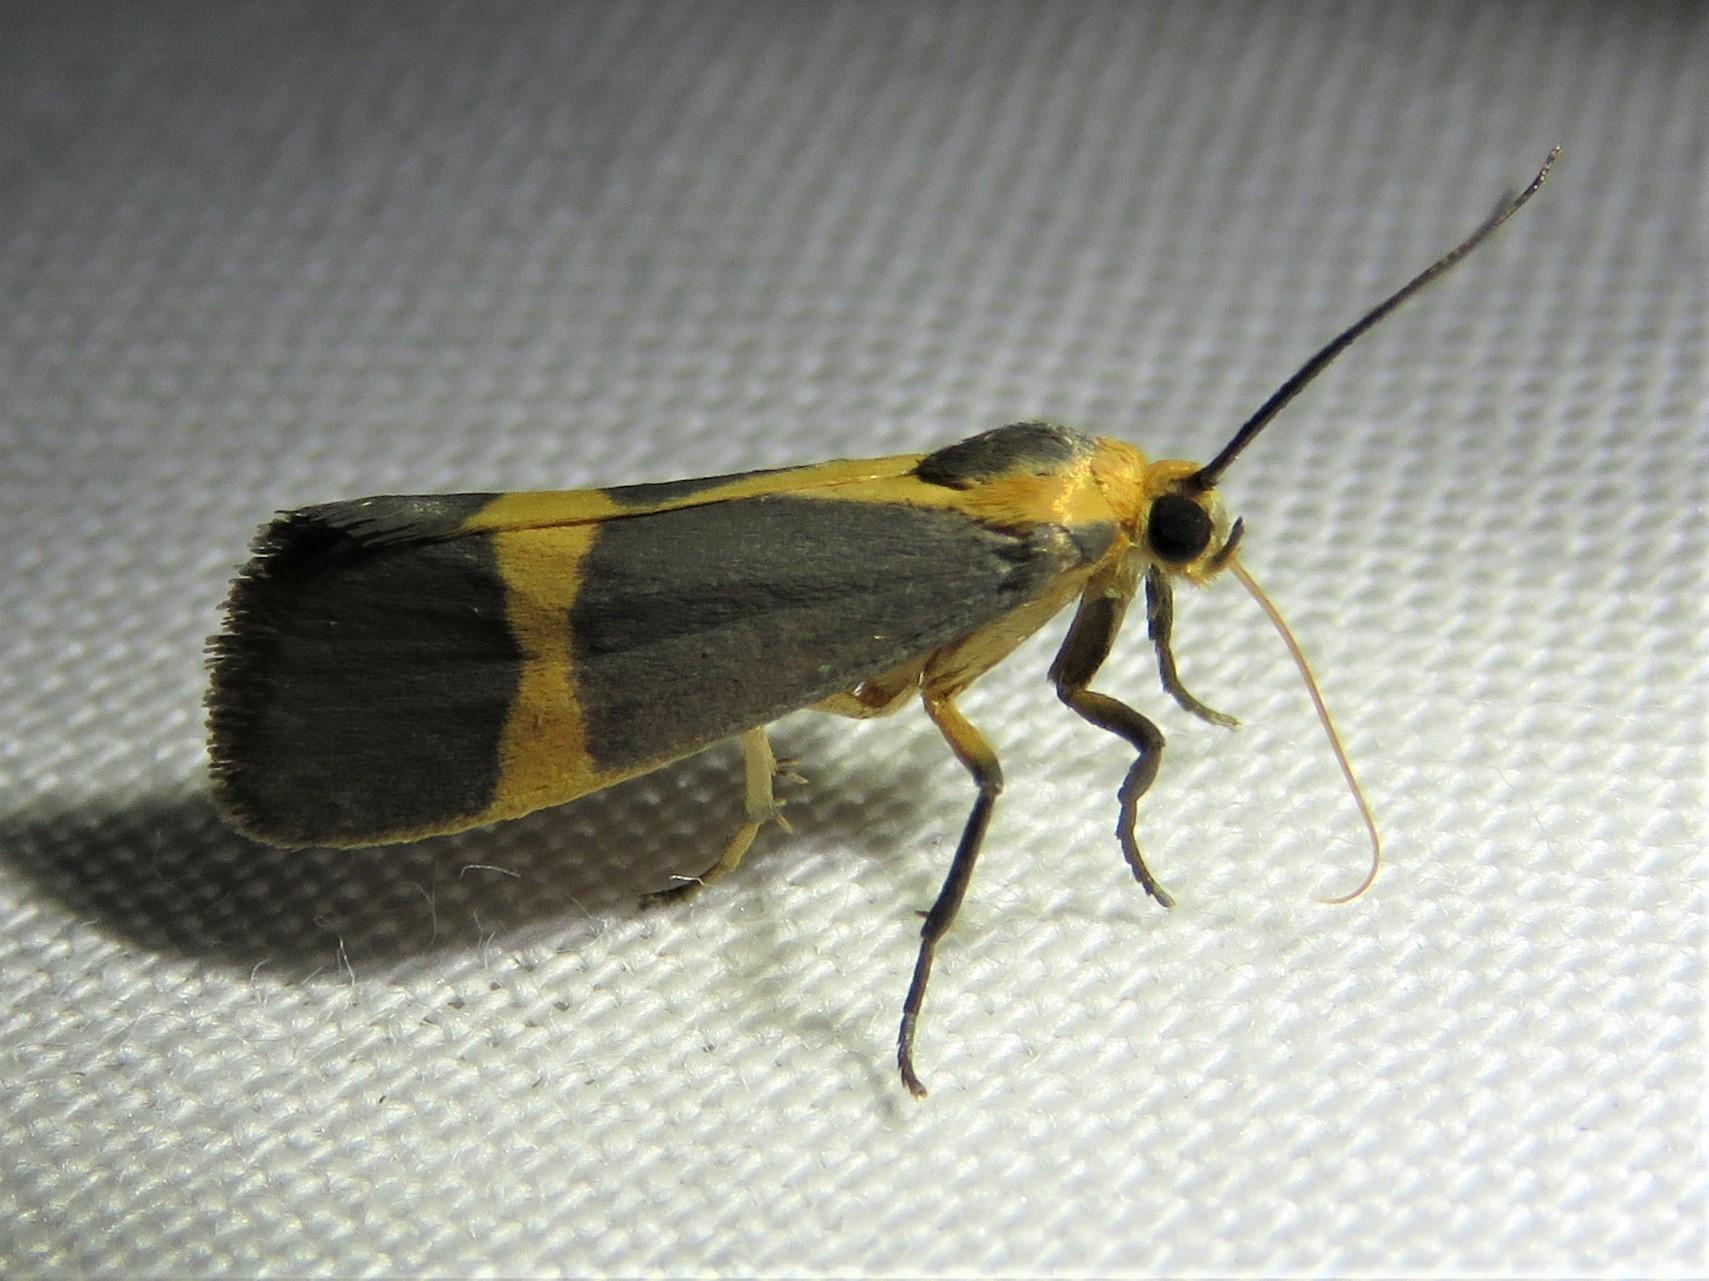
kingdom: Animalia
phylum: Arthropoda
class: Insecta
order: Lepidoptera
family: Erebidae
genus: Cisthene
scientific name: Cisthene tenuifascia
